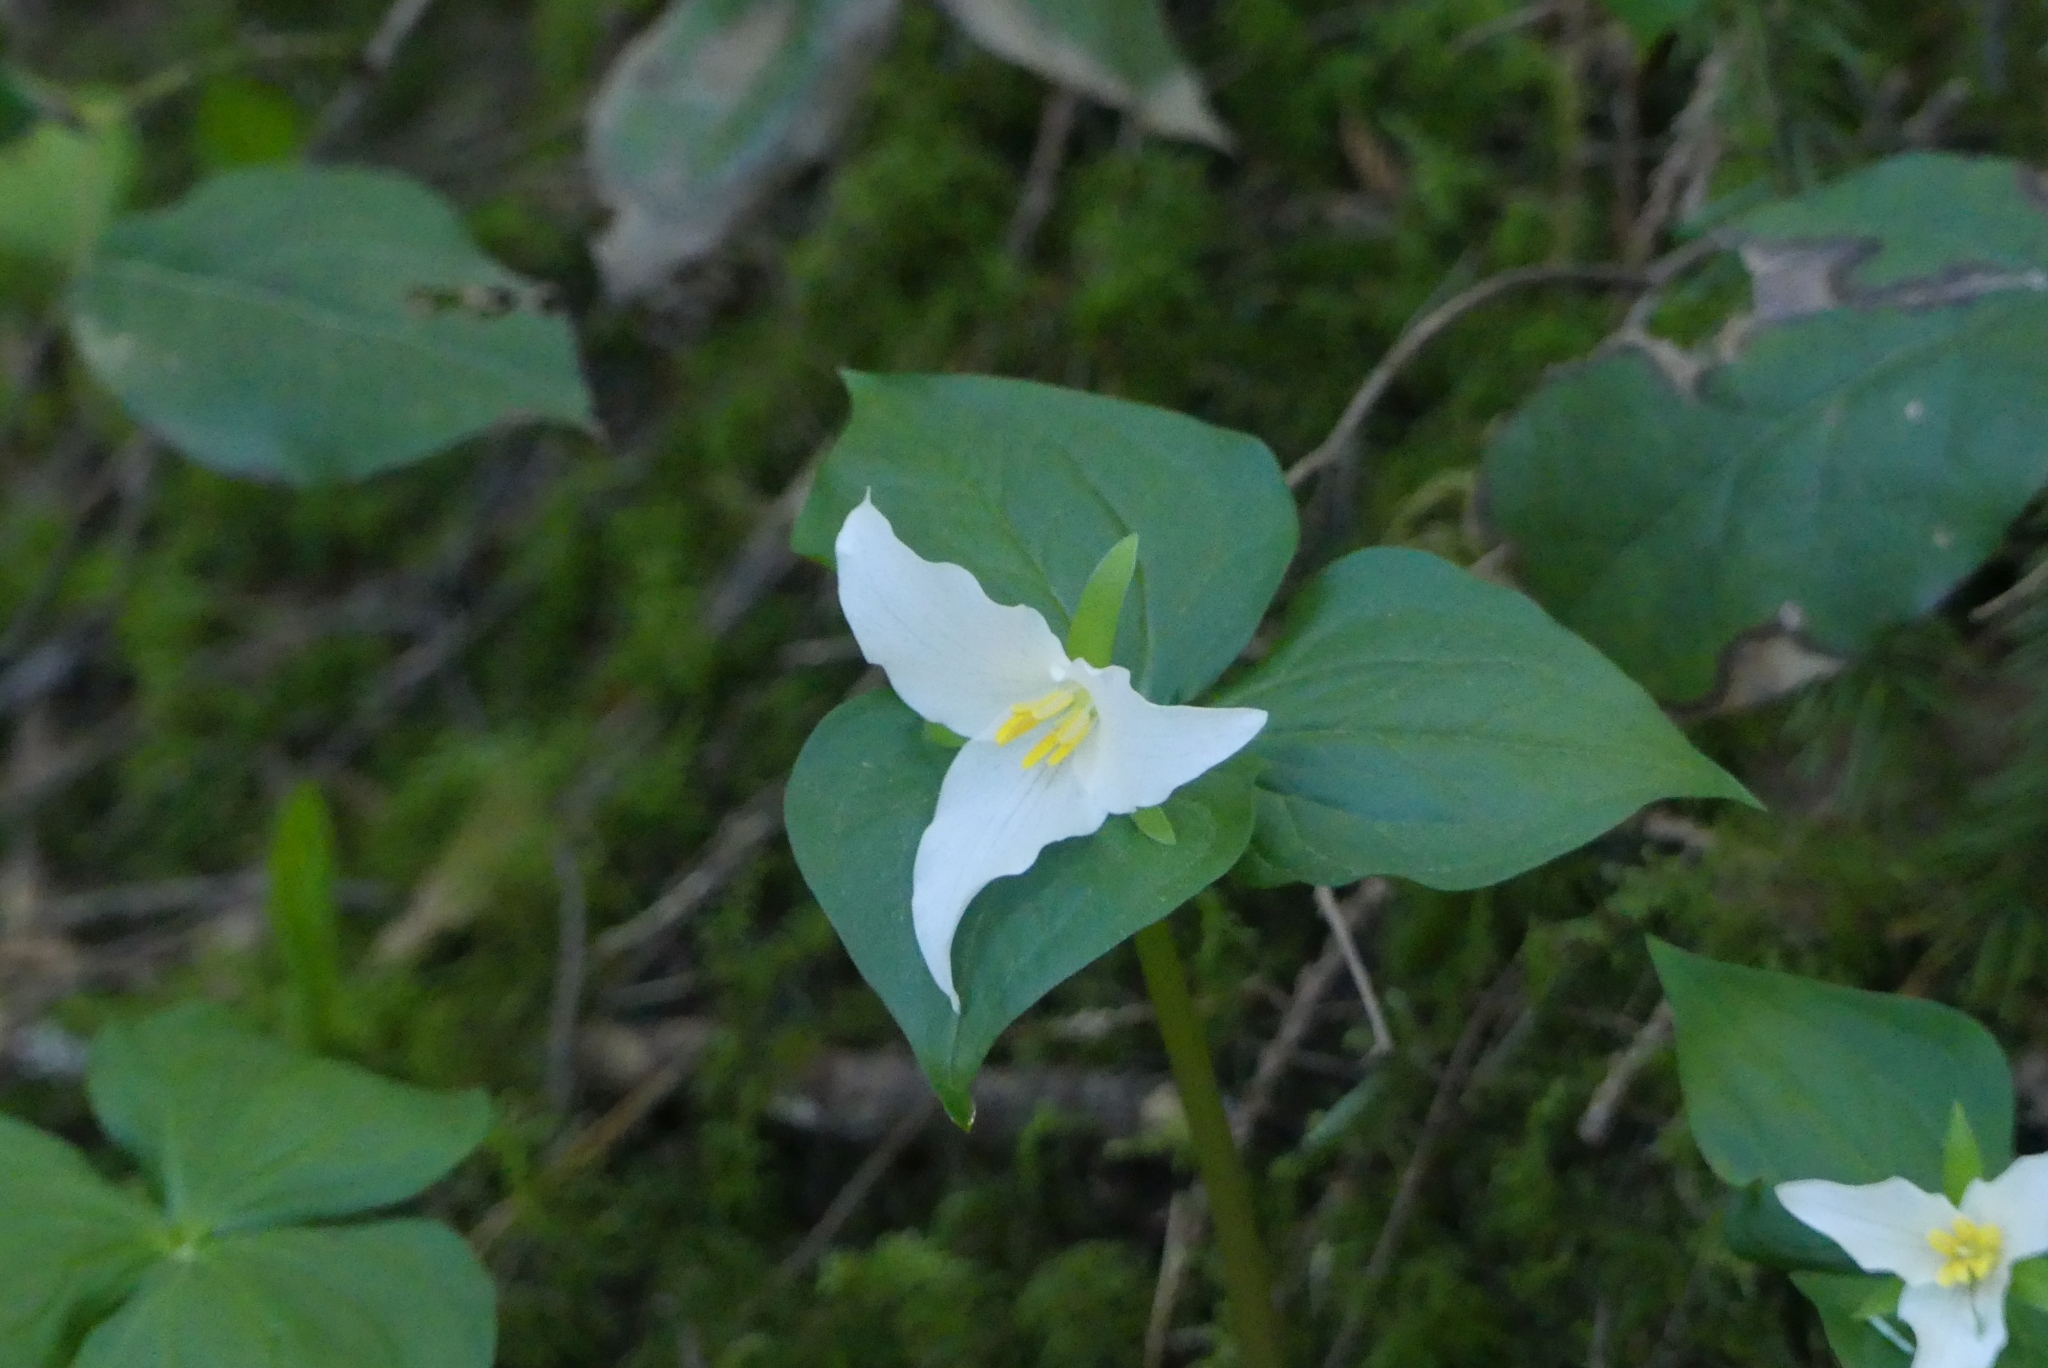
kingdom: Plantae
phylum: Tracheophyta
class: Liliopsida
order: Liliales
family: Melanthiaceae
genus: Trillium
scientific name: Trillium ovatum
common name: Pacific trillium
